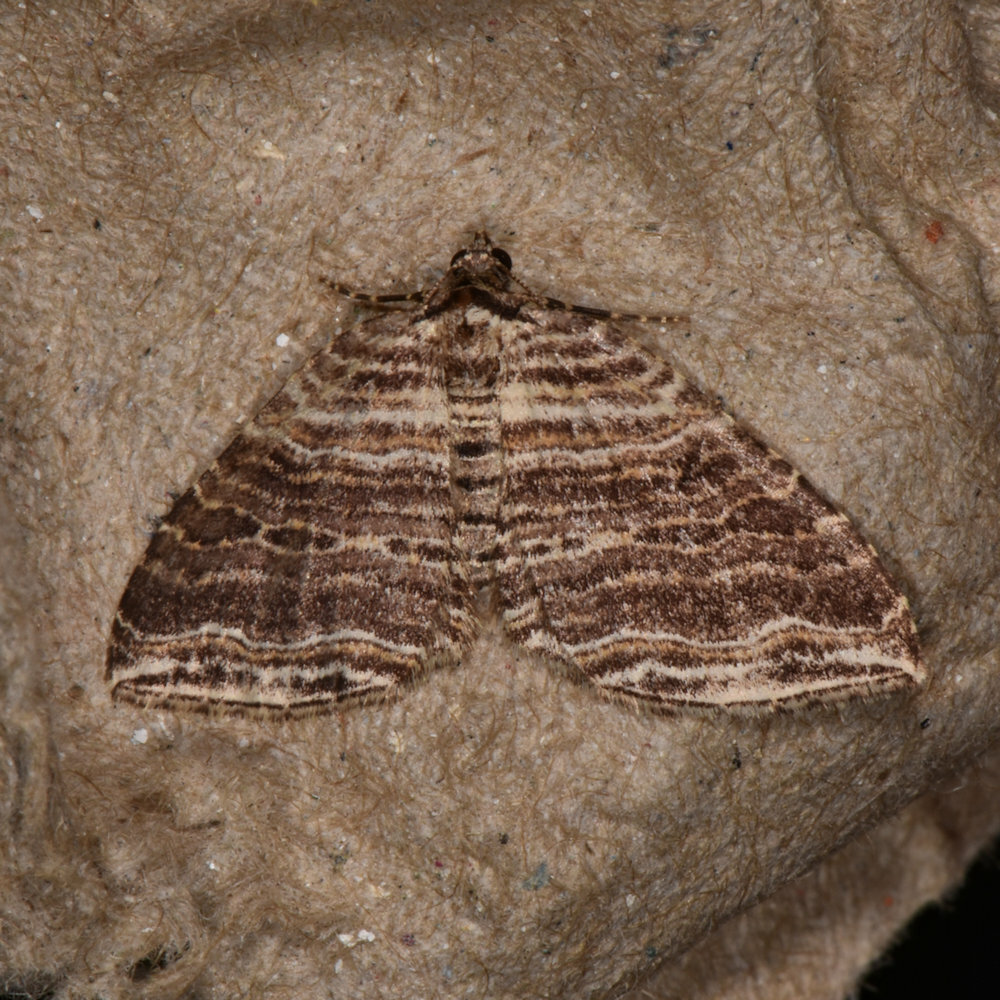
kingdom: Animalia
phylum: Arthropoda
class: Insecta
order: Lepidoptera
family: Geometridae
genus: Anticlea
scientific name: Anticlea multiferata
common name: Many-lined carpet
